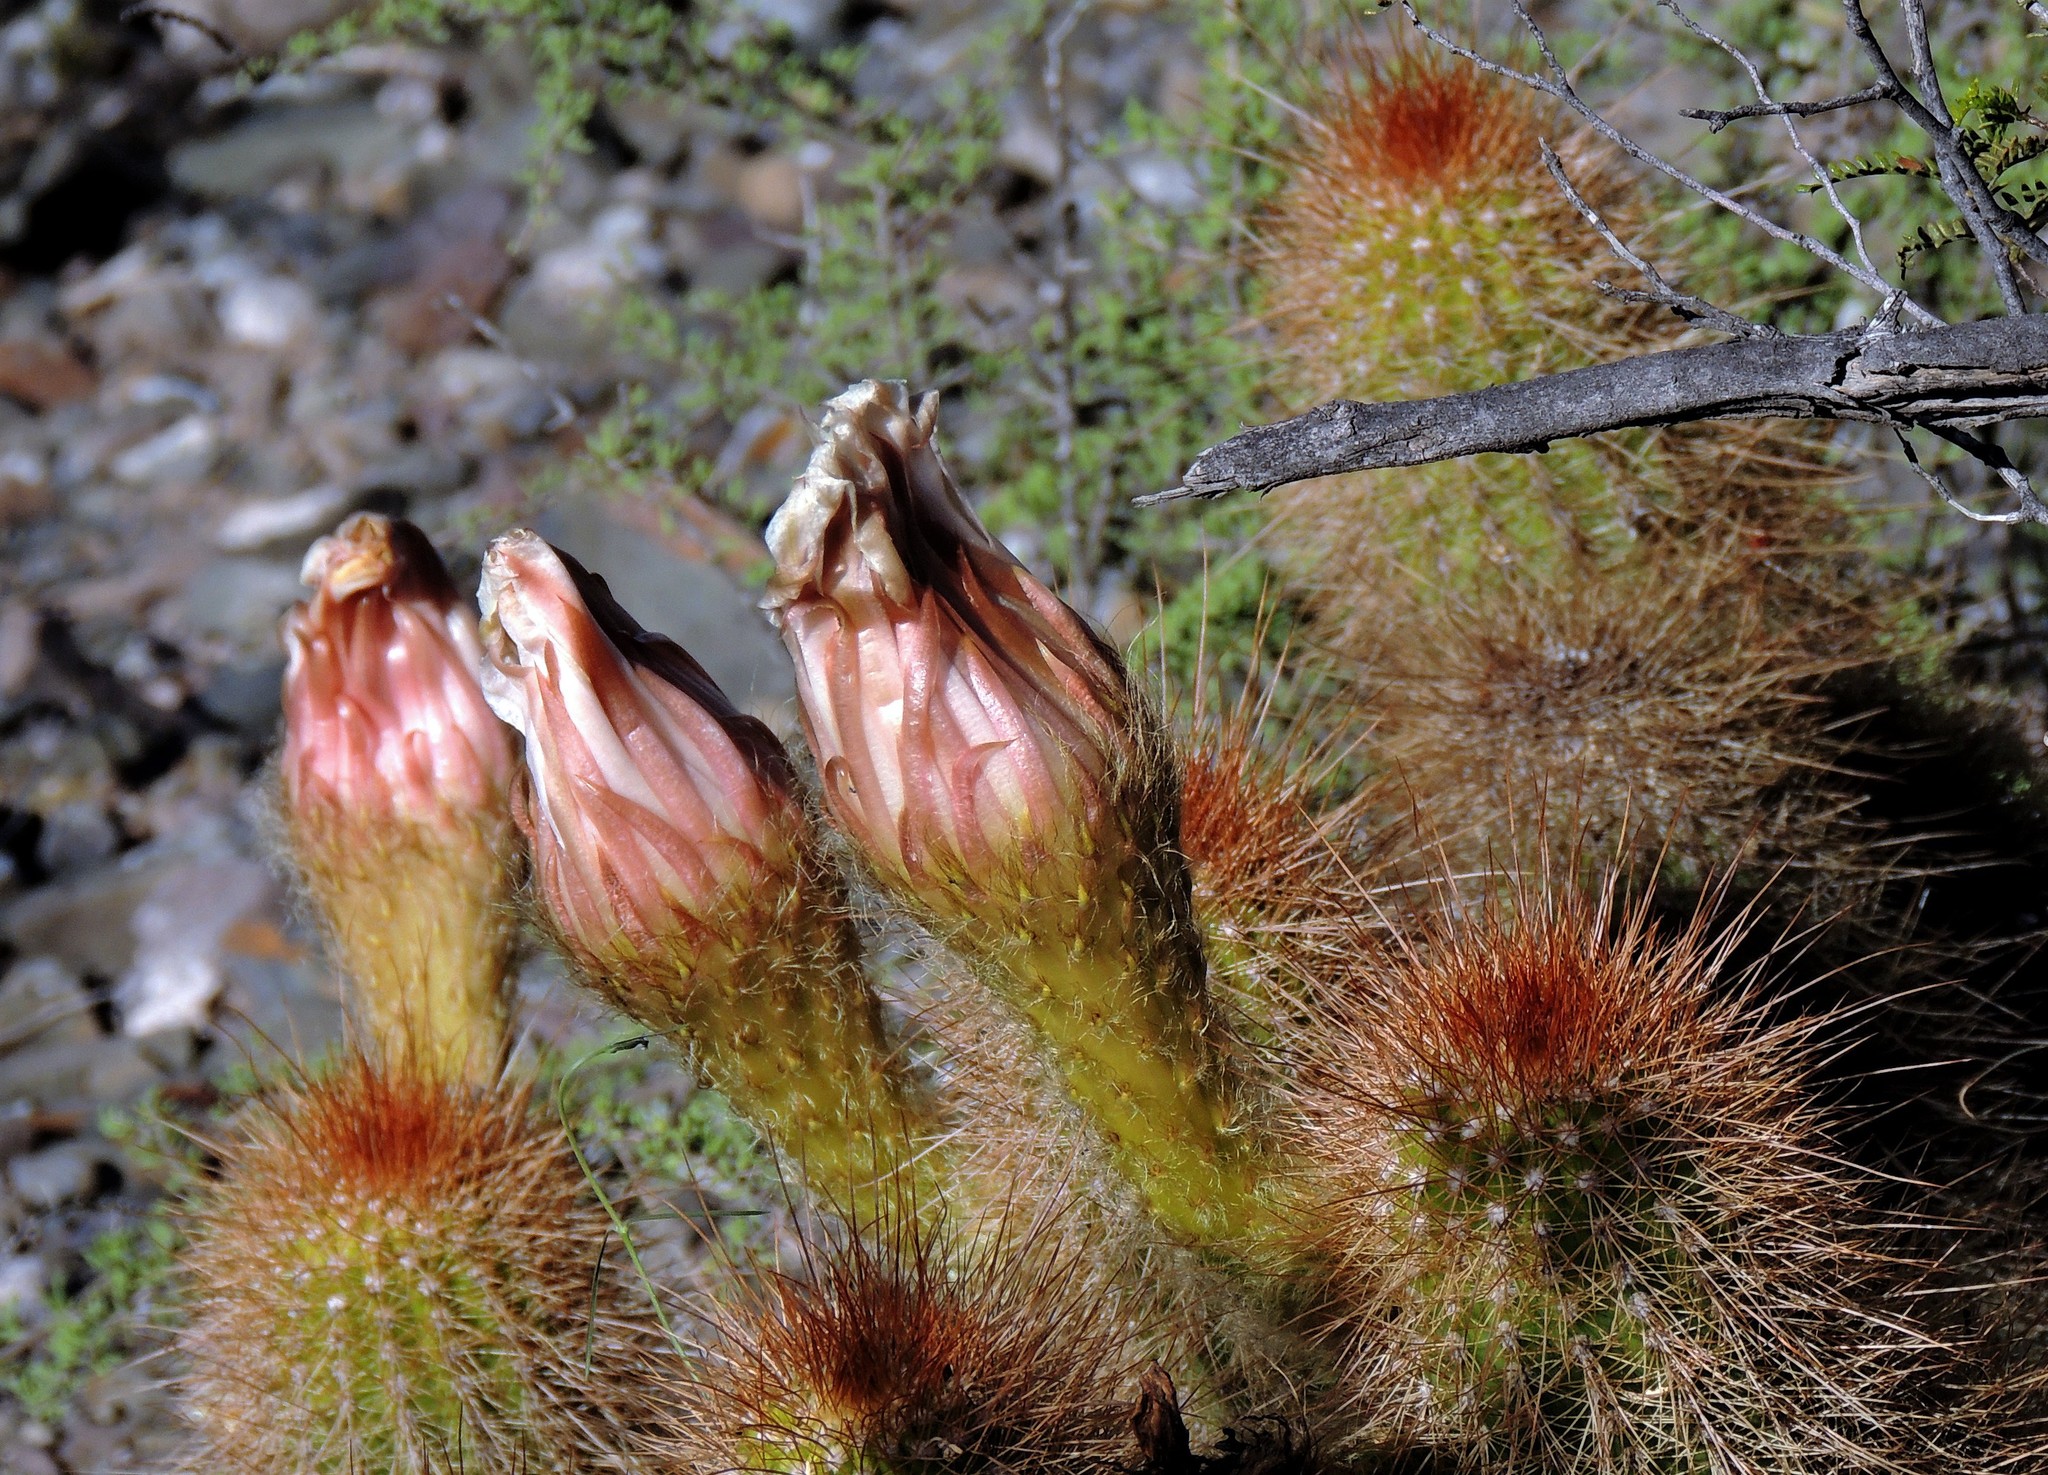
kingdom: Plantae
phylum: Tracheophyta
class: Magnoliopsida
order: Caryophyllales
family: Cactaceae
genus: Soehrensia
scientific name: Soehrensia strigosa
